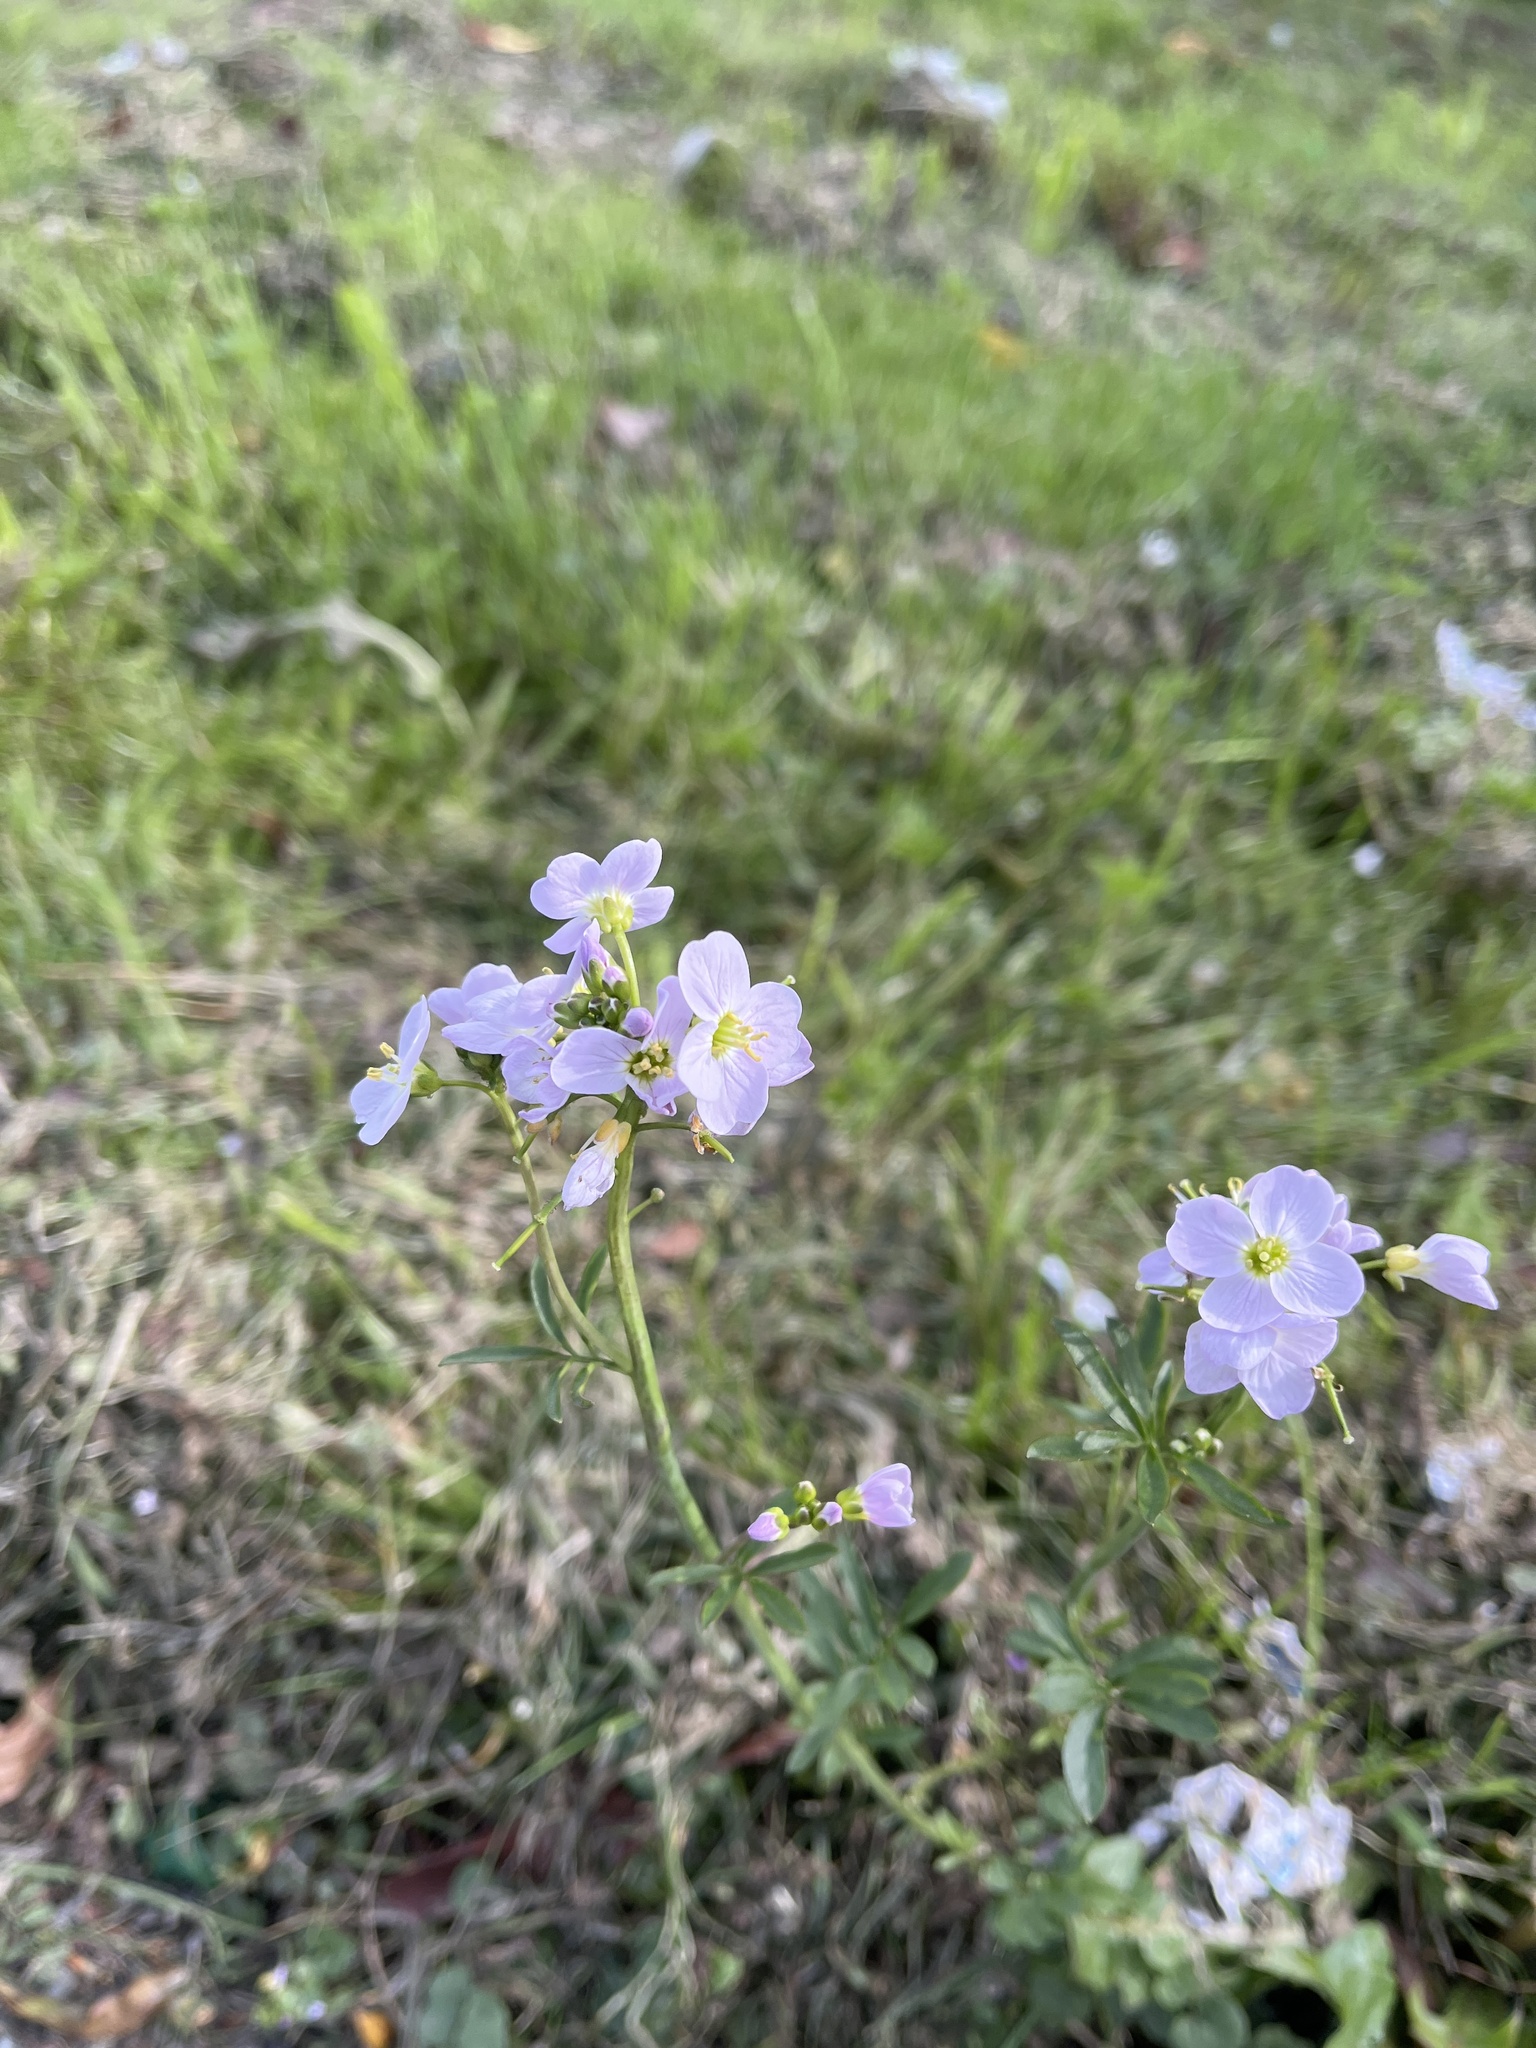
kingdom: Plantae
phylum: Tracheophyta
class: Magnoliopsida
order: Brassicales
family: Brassicaceae
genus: Cardamine
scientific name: Cardamine pratensis
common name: Cuckoo flower
